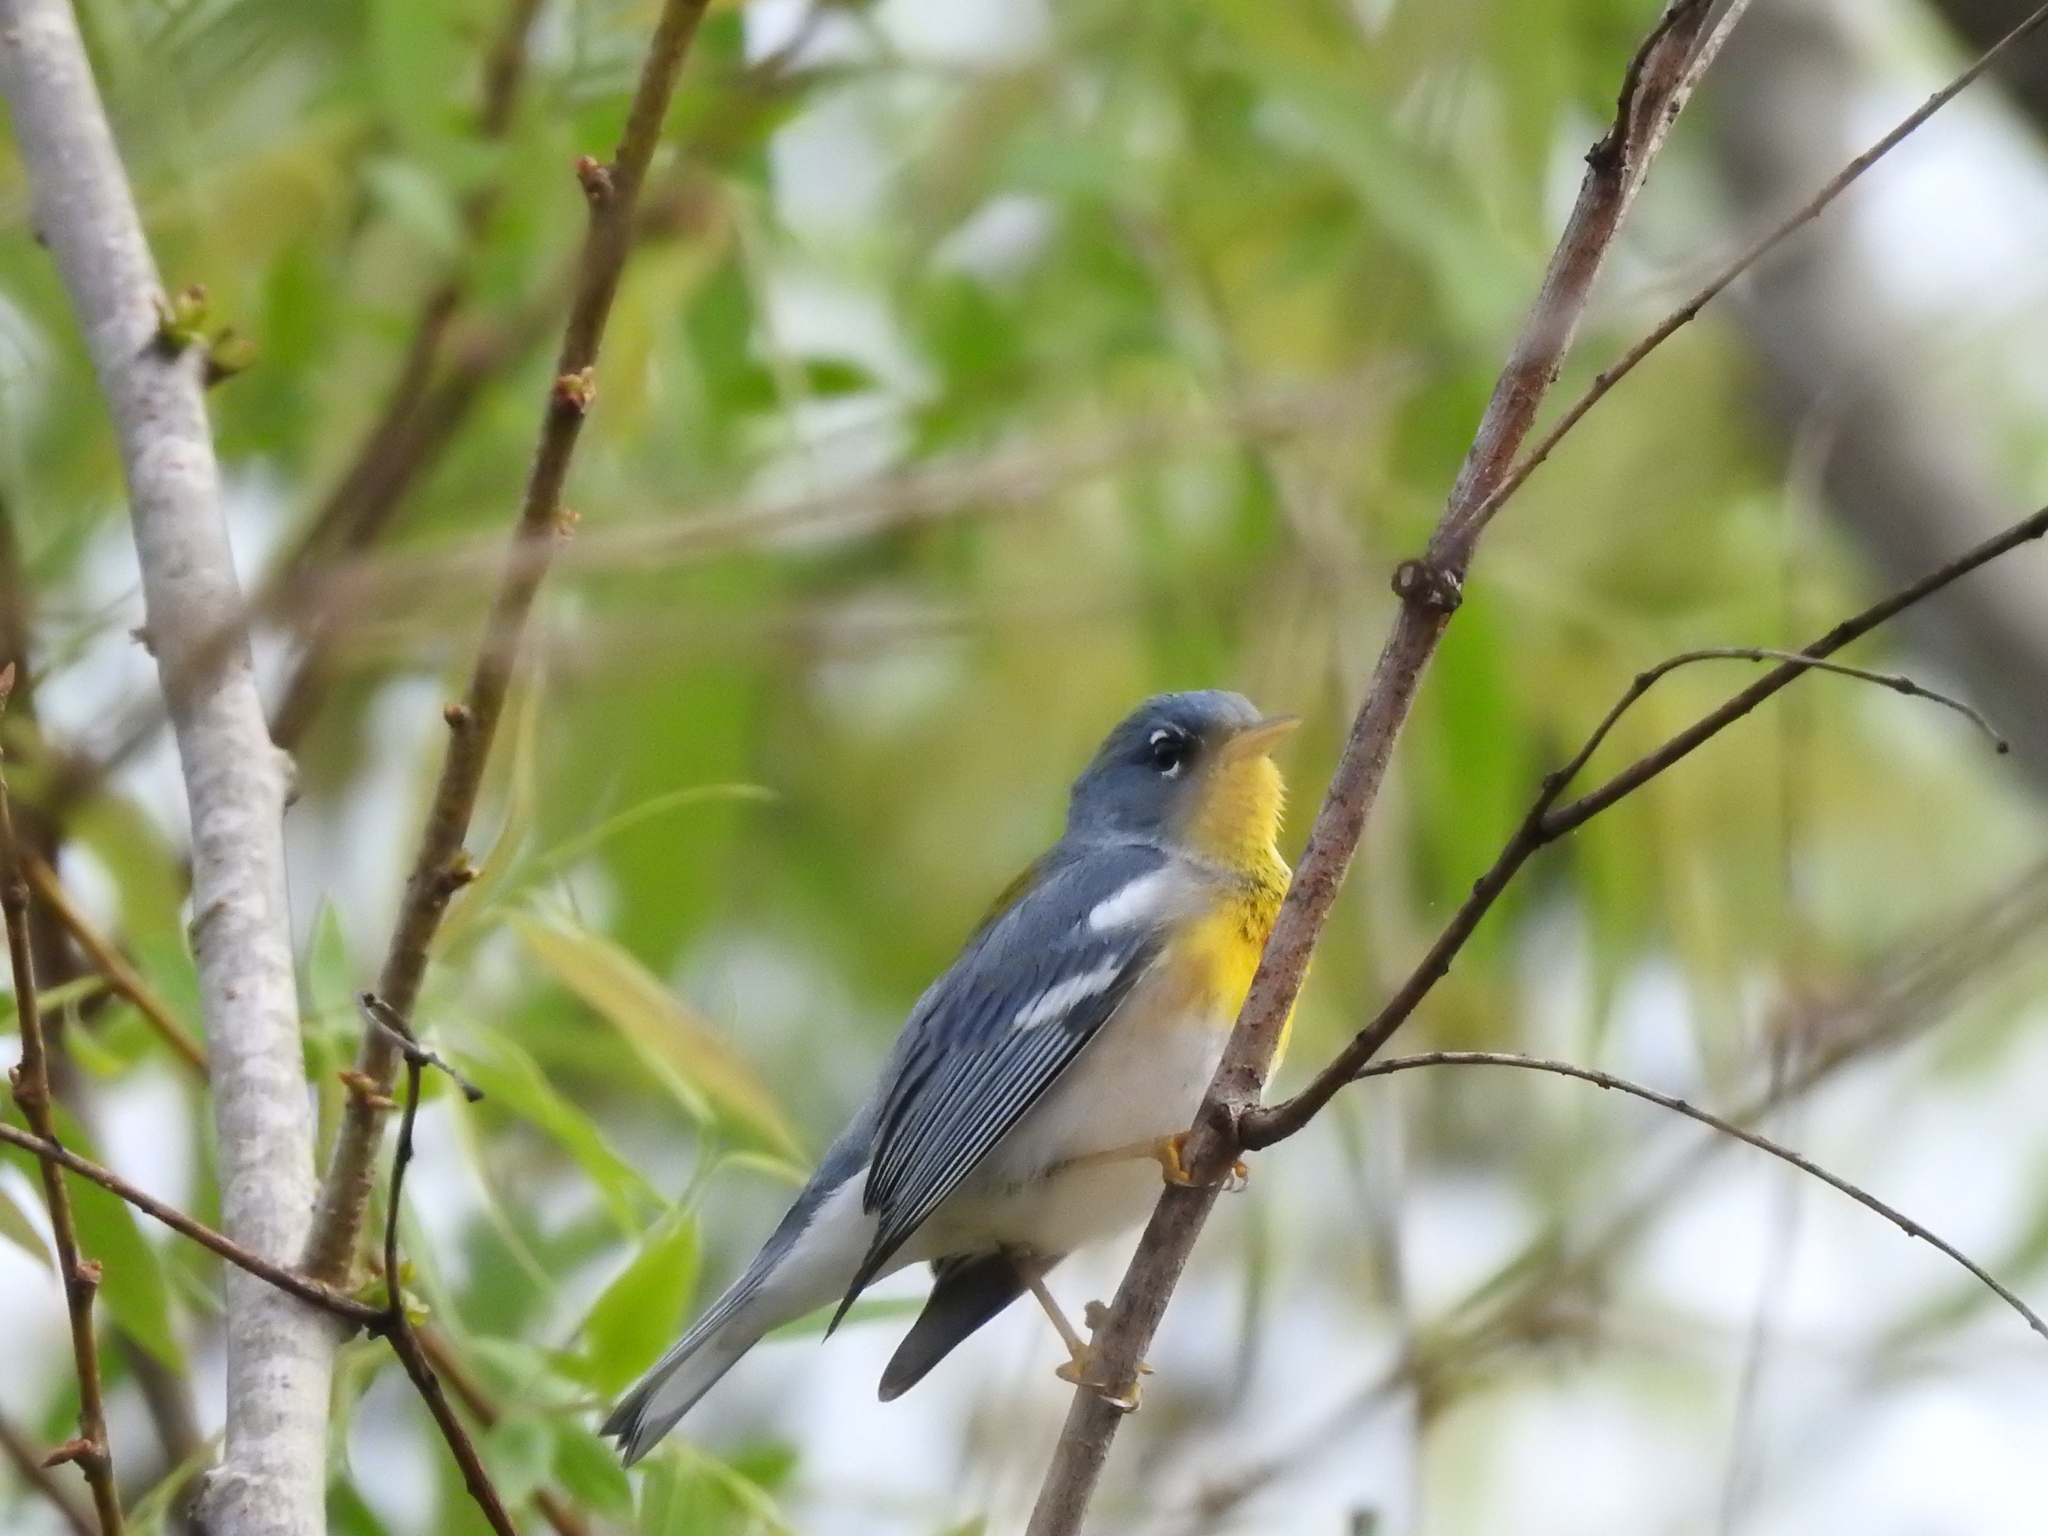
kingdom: Animalia
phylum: Chordata
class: Aves
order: Passeriformes
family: Parulidae
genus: Setophaga
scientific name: Setophaga americana
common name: Northern parula
